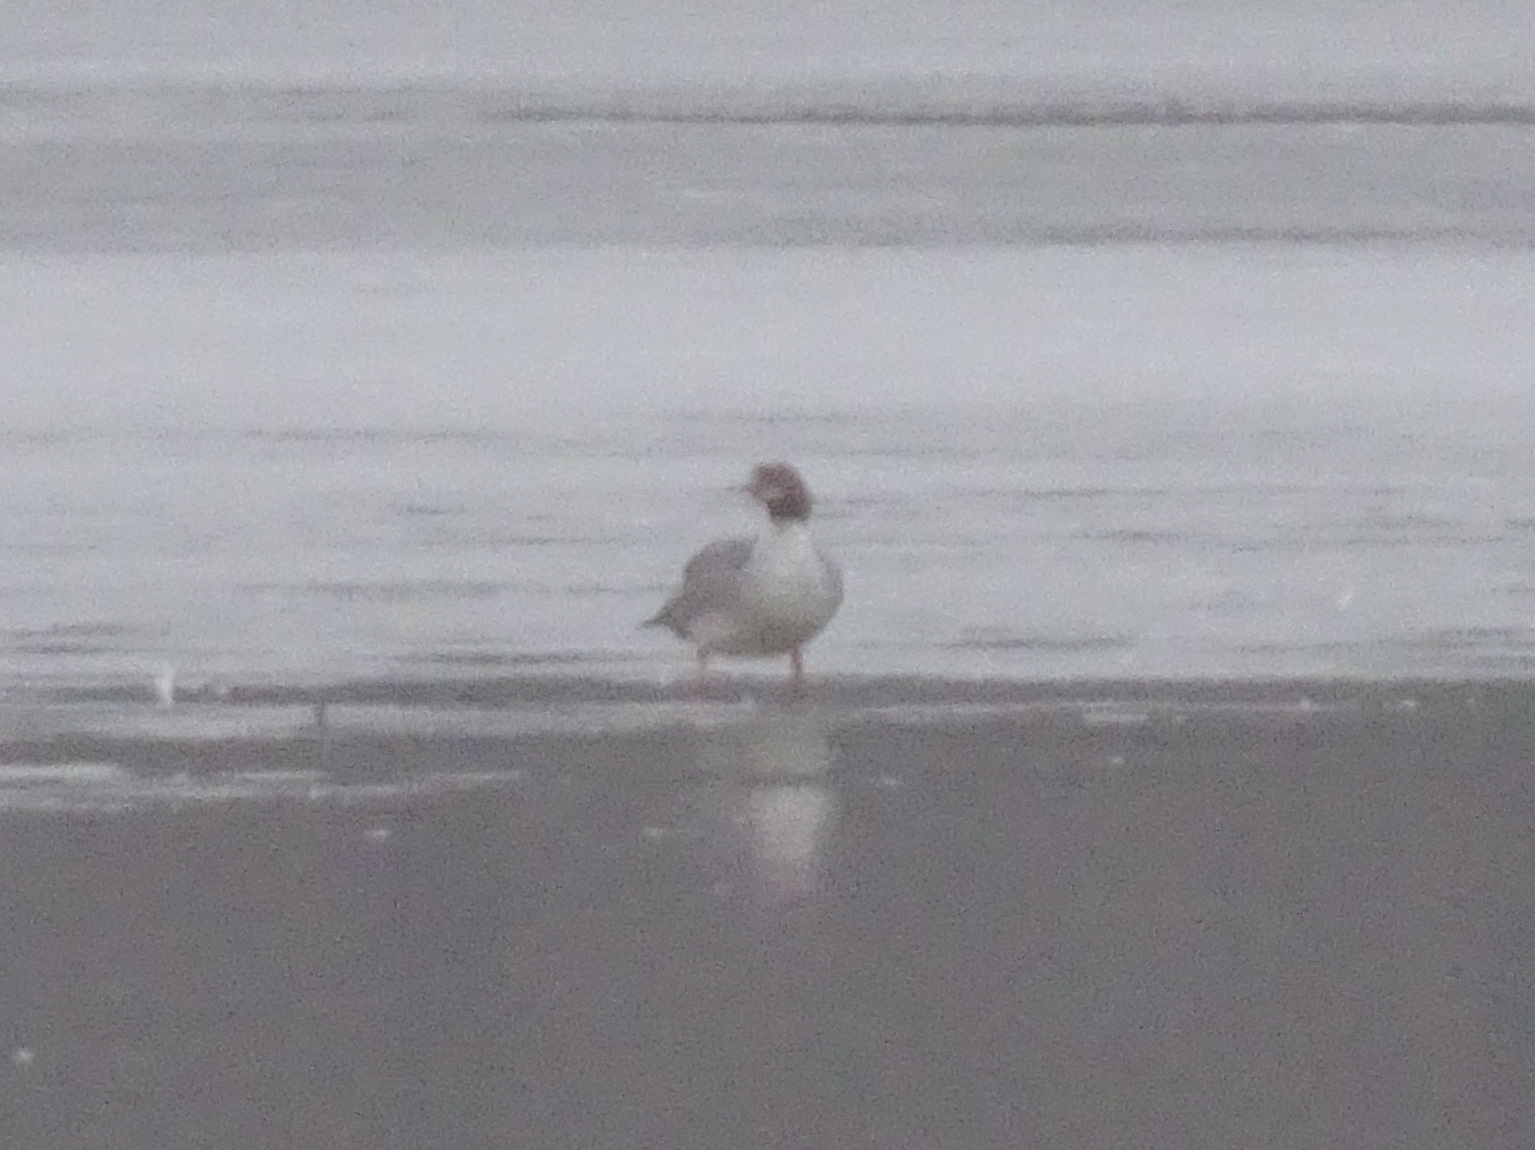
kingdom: Animalia
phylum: Chordata
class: Aves
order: Anseriformes
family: Anatidae
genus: Mergus
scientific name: Mergus merganser
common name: Common merganser
